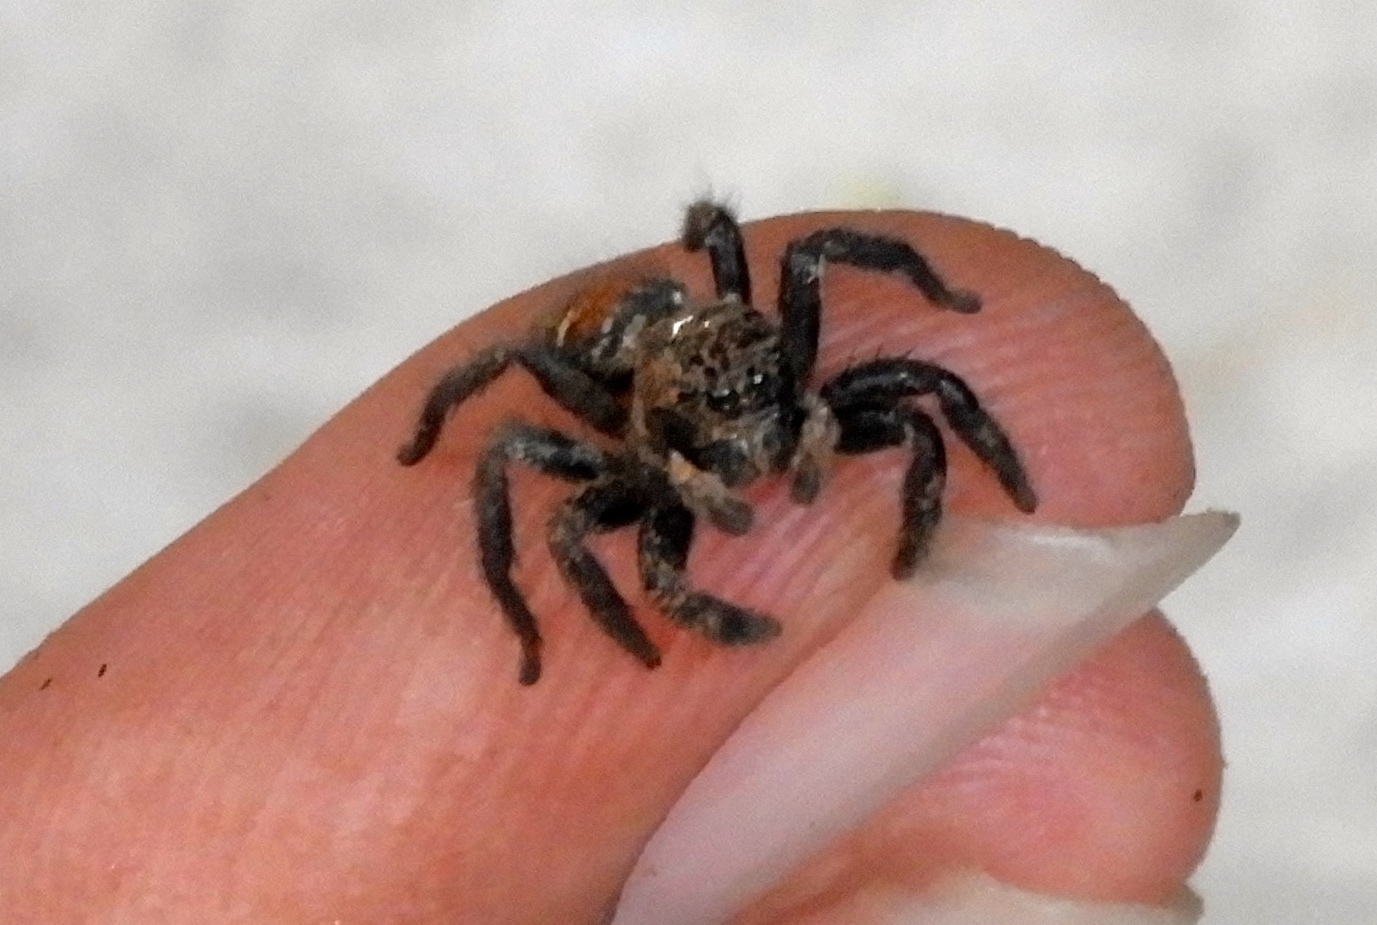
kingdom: Animalia
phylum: Arthropoda
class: Arachnida
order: Araneae
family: Salticidae
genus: Corythalia
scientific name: Corythalia
